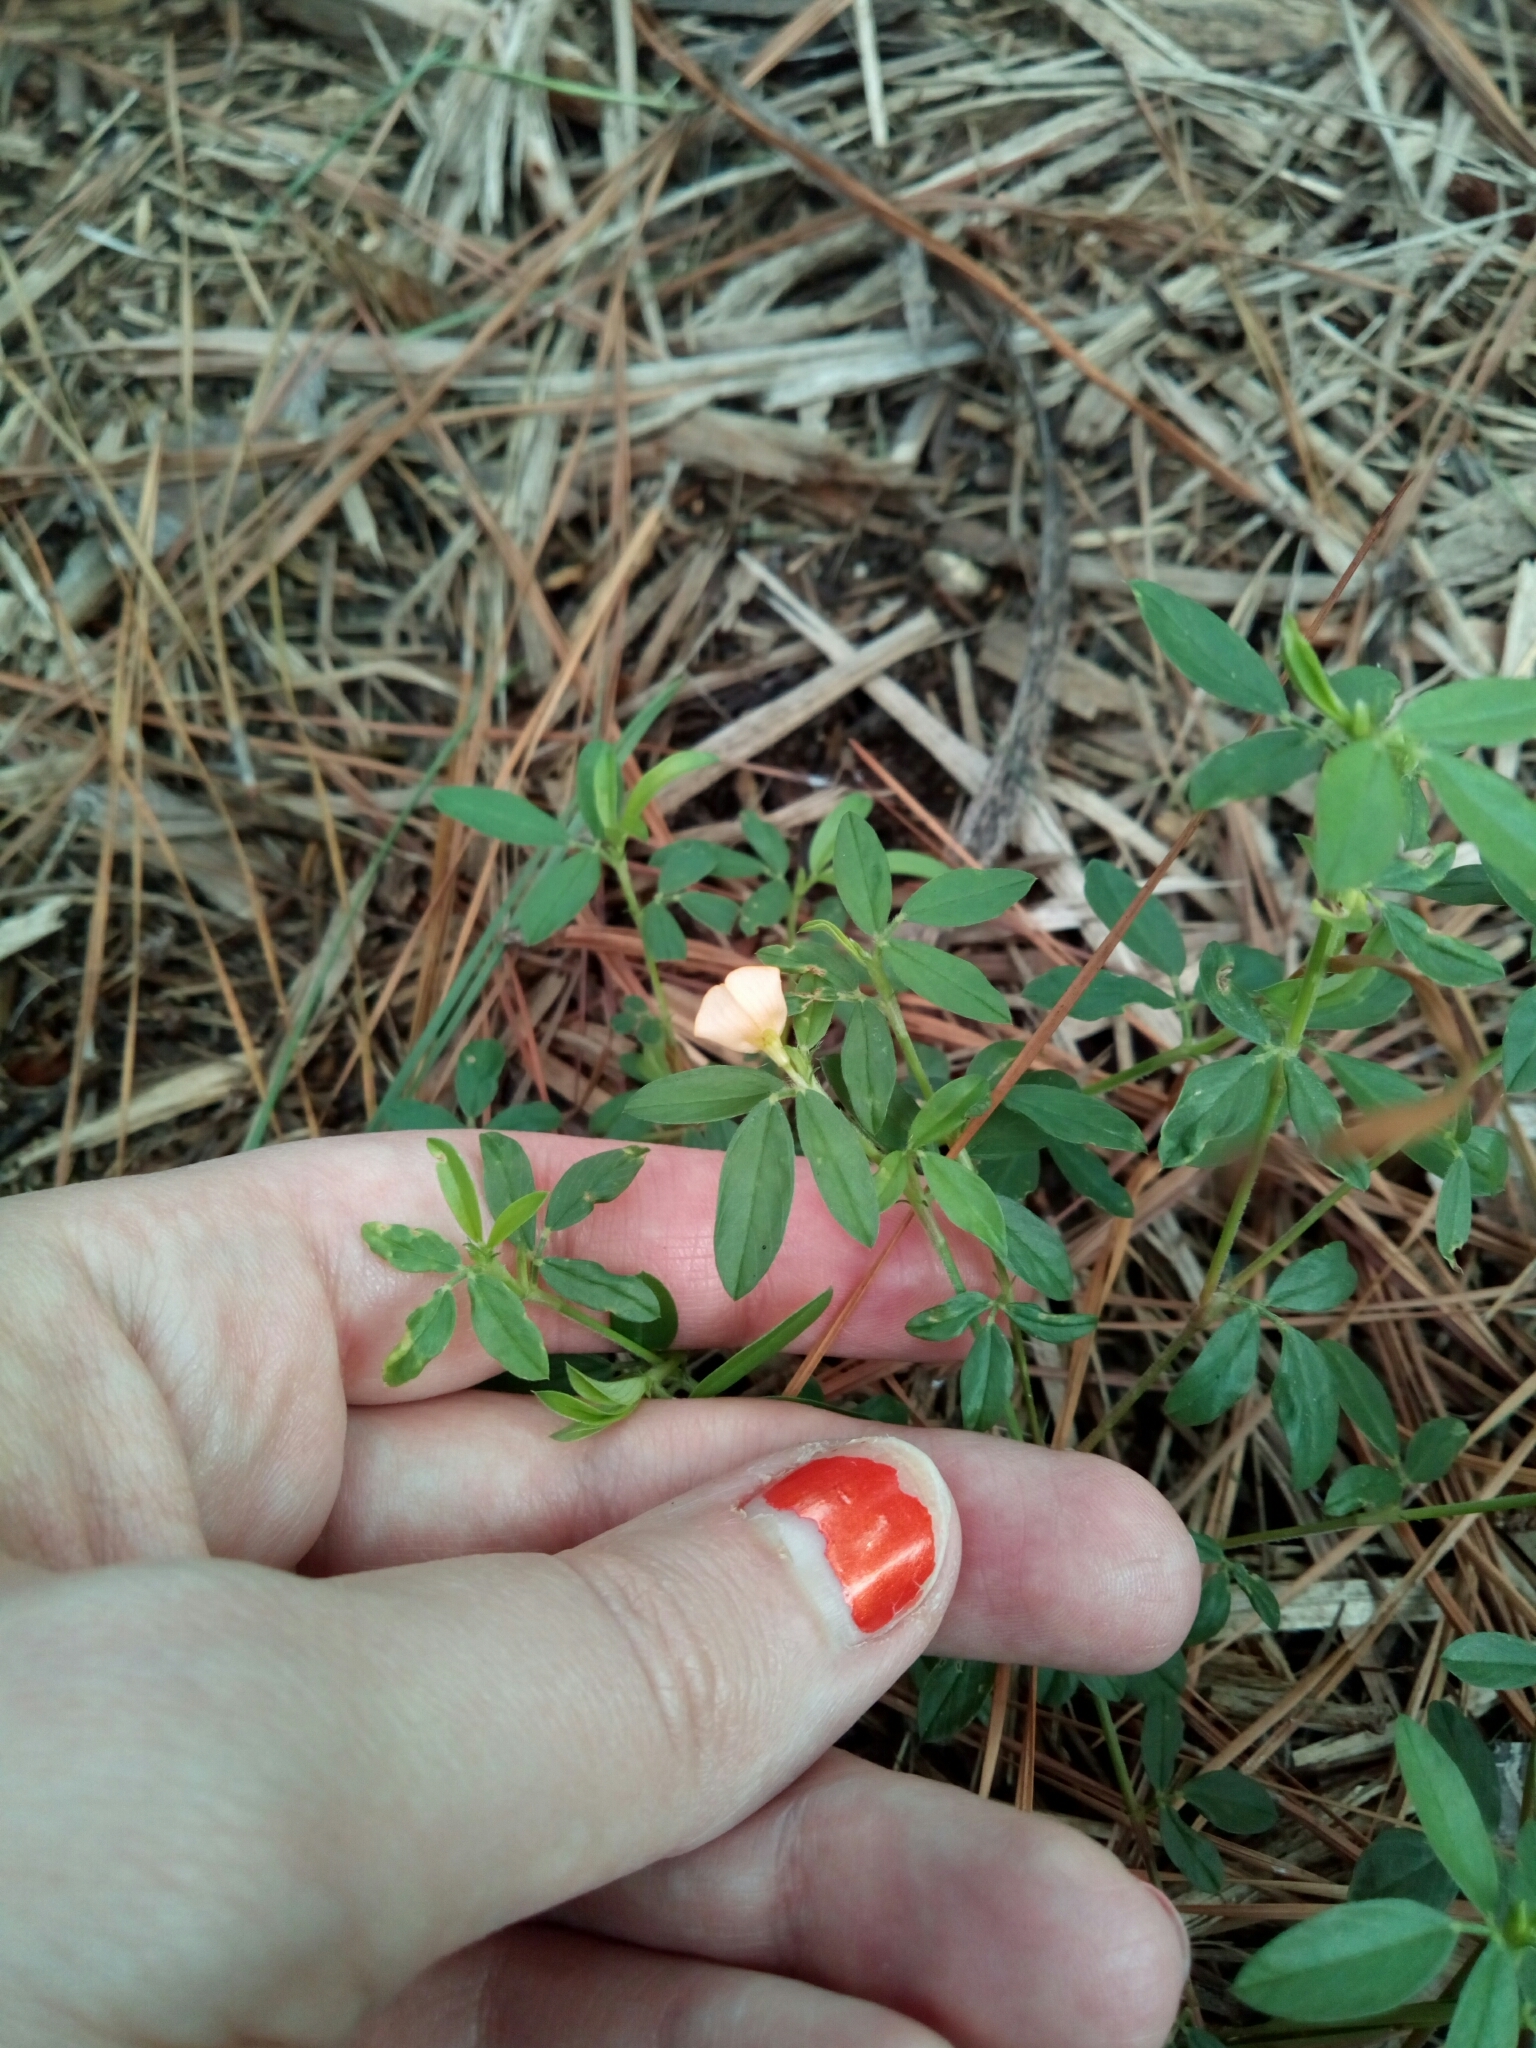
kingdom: Plantae
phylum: Tracheophyta
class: Magnoliopsida
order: Fabales
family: Fabaceae
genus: Stylosanthes
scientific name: Stylosanthes biflora
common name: Two-flower pencil-flower
